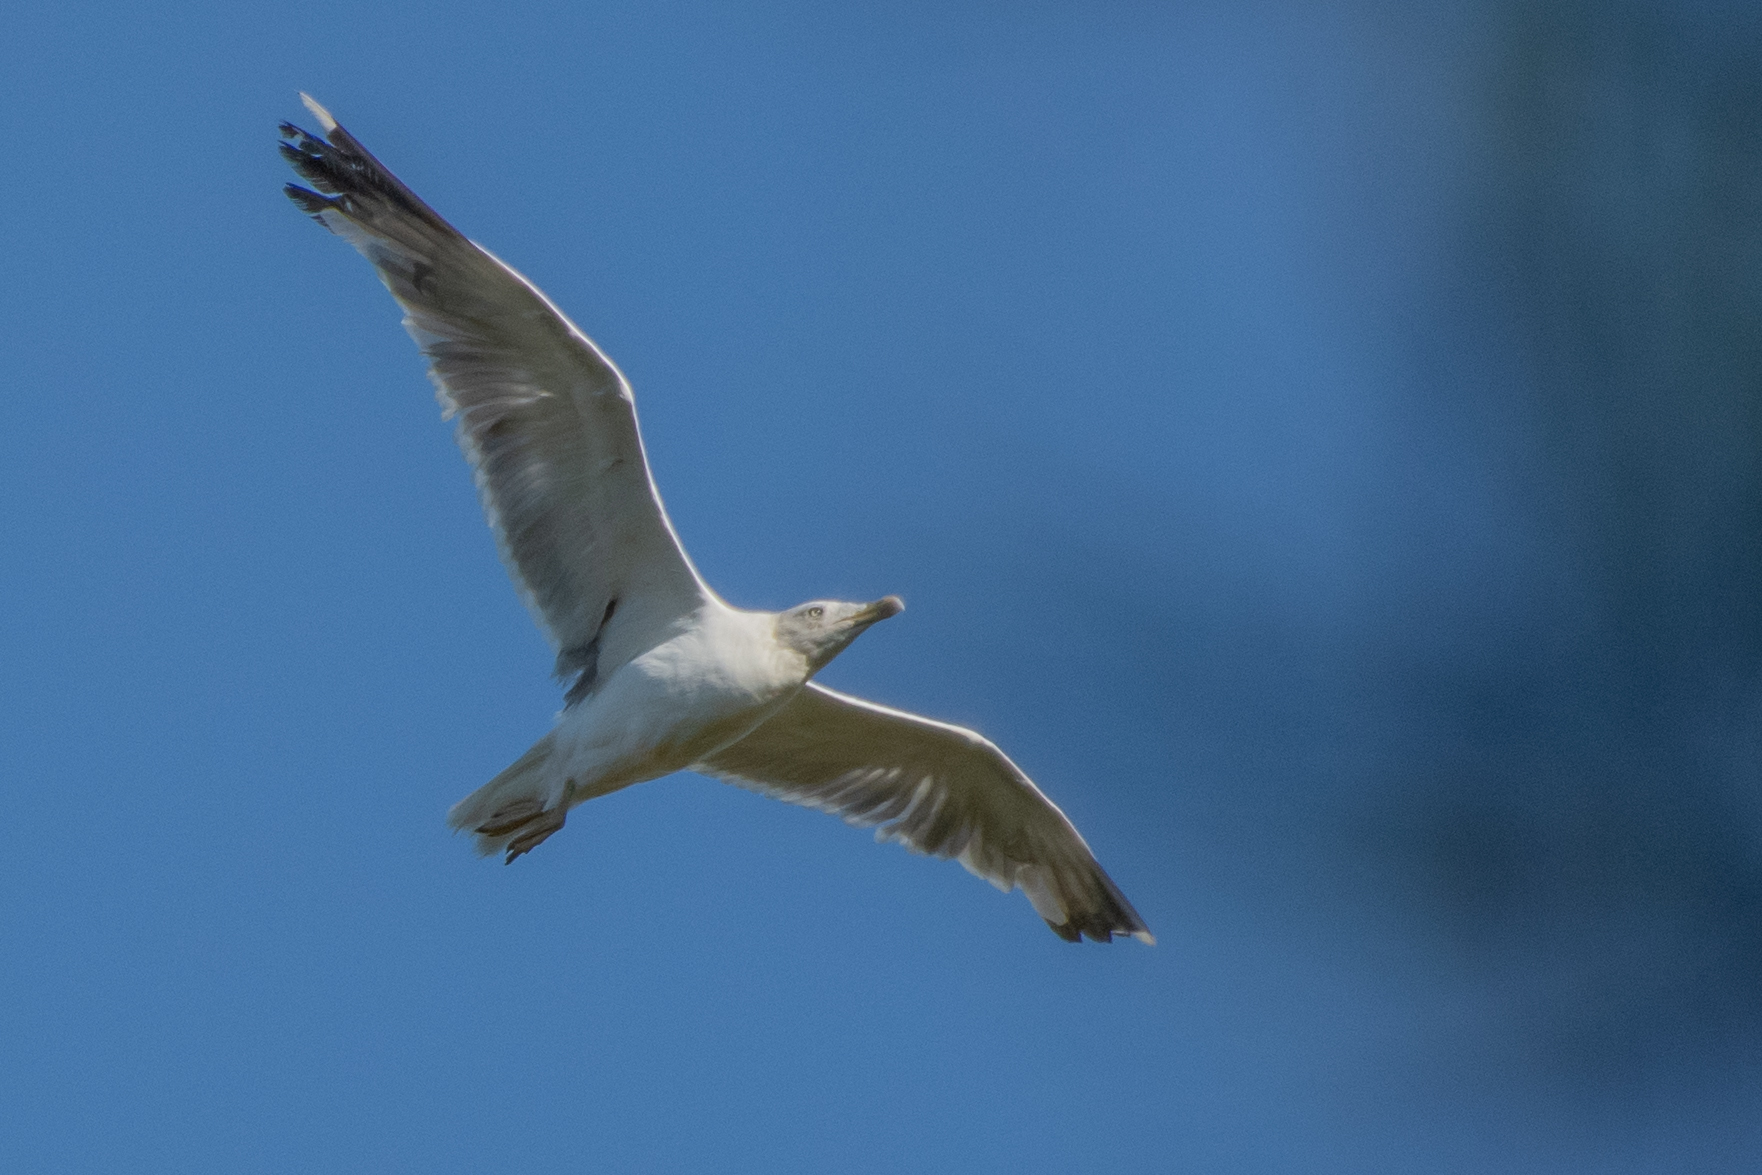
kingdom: Animalia
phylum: Chordata
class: Aves
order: Charadriiformes
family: Laridae
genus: Larus
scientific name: Larus argentatus
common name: Herring gull
